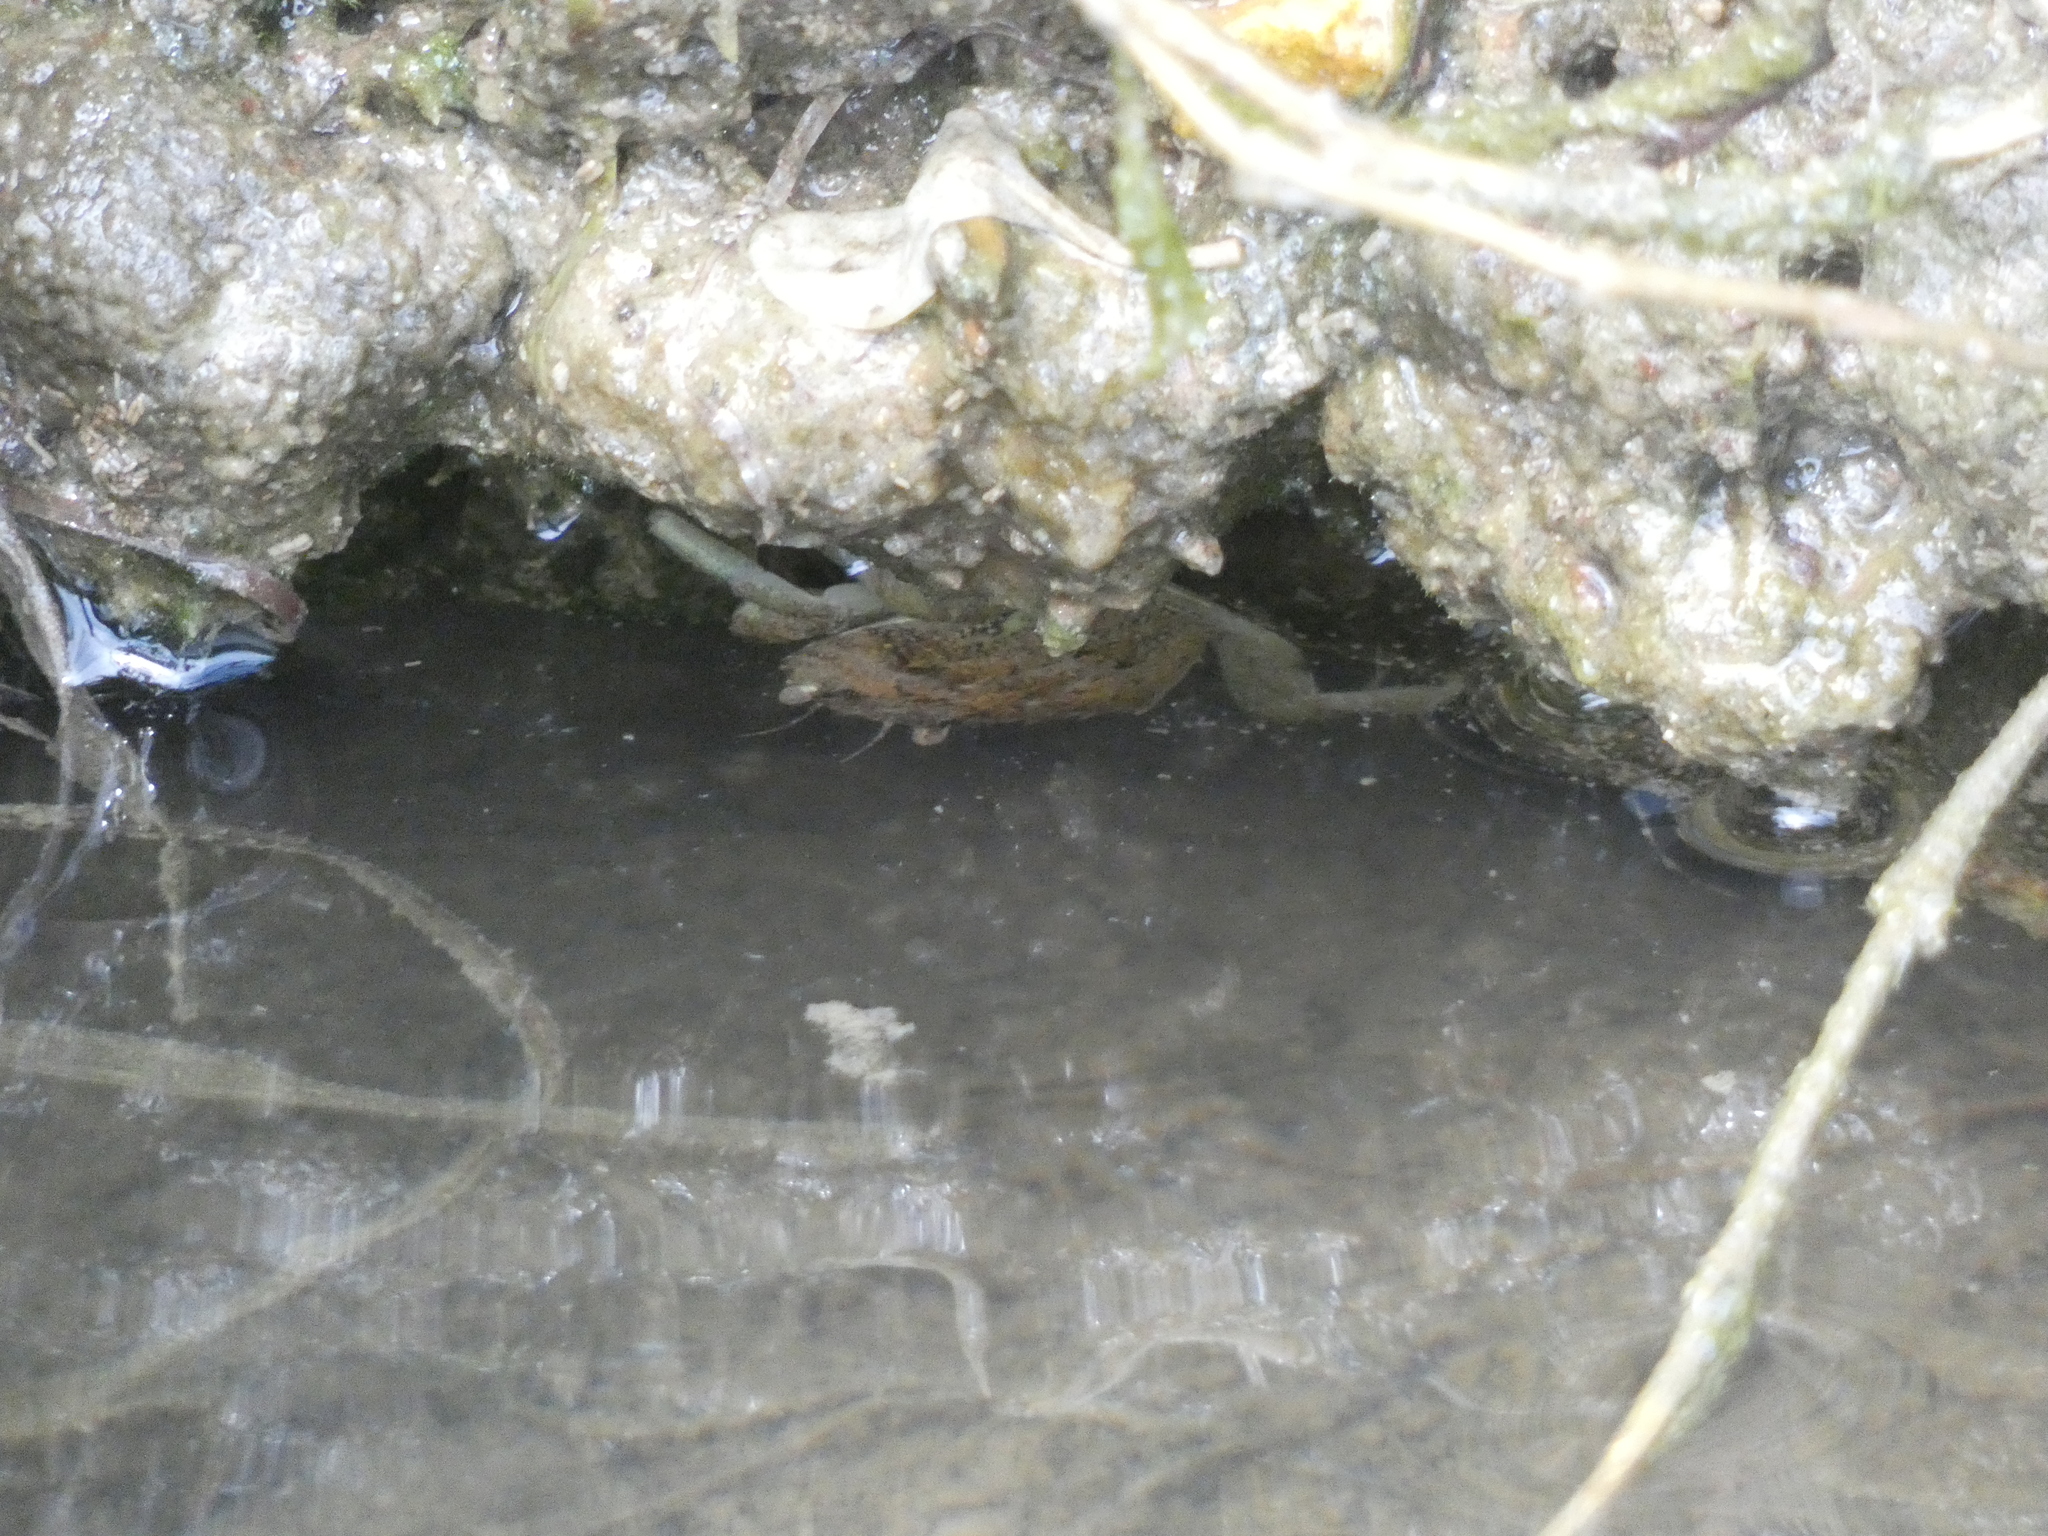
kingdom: Animalia
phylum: Arthropoda
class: Malacostraca
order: Decapoda
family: Carcinidae
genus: Carcinus
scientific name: Carcinus maenas
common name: European green crab
